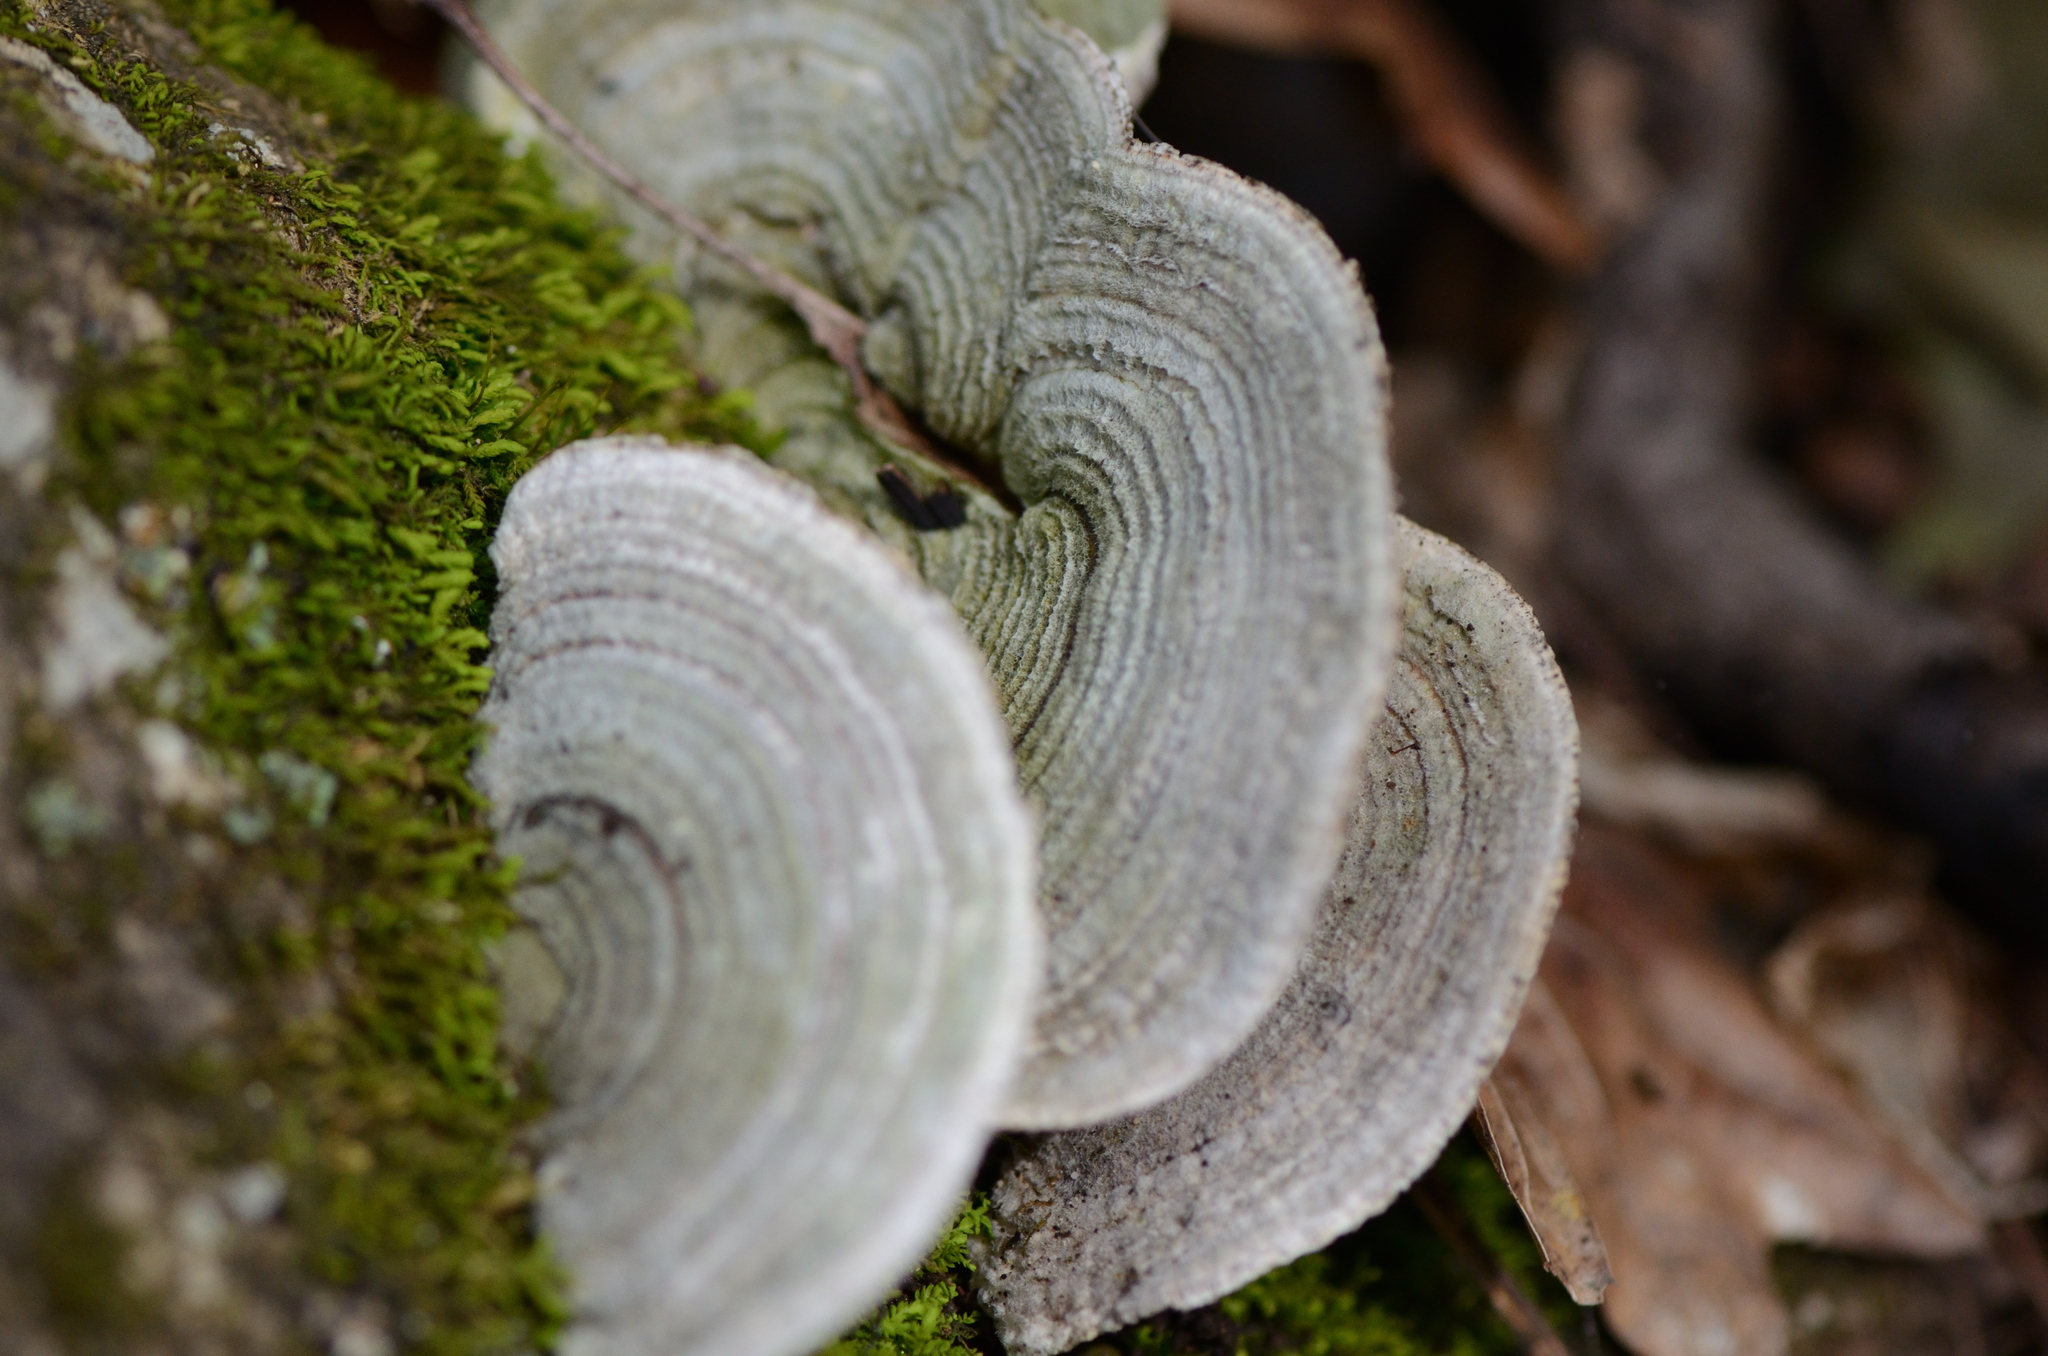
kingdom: Fungi
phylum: Basidiomycota
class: Agaricomycetes
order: Polyporales
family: Polyporaceae
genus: Lenzites
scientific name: Lenzites betulinus
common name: Birch mazegill
